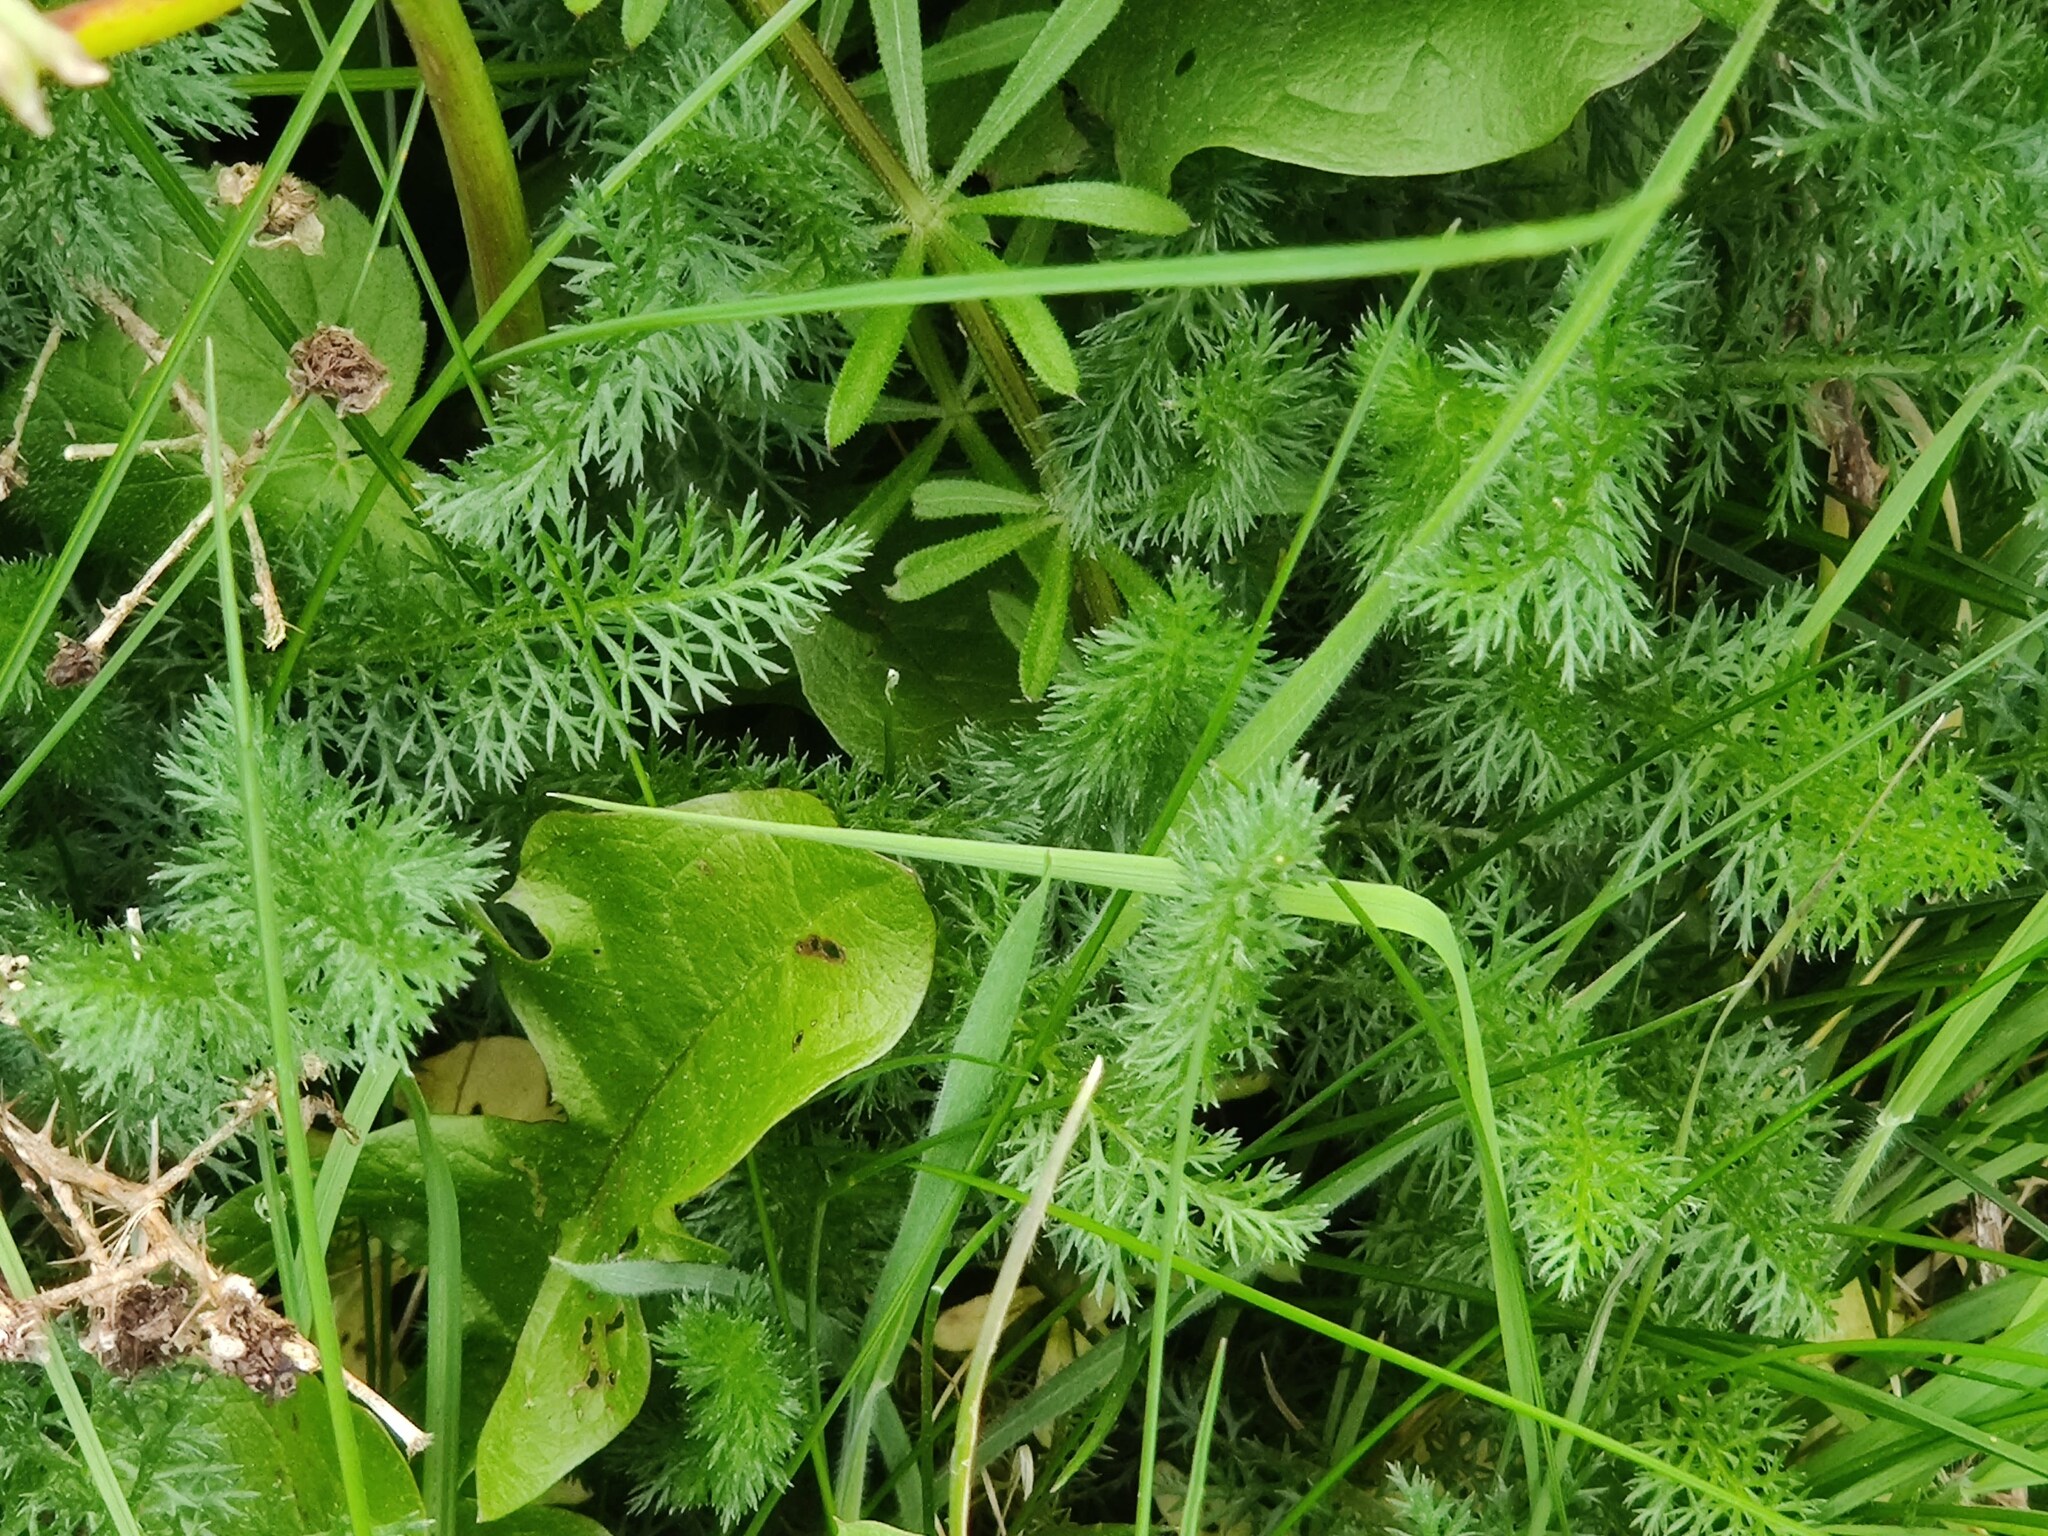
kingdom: Plantae
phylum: Tracheophyta
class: Magnoliopsida
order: Asterales
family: Asteraceae
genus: Achillea
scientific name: Achillea millefolium
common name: Yarrow
